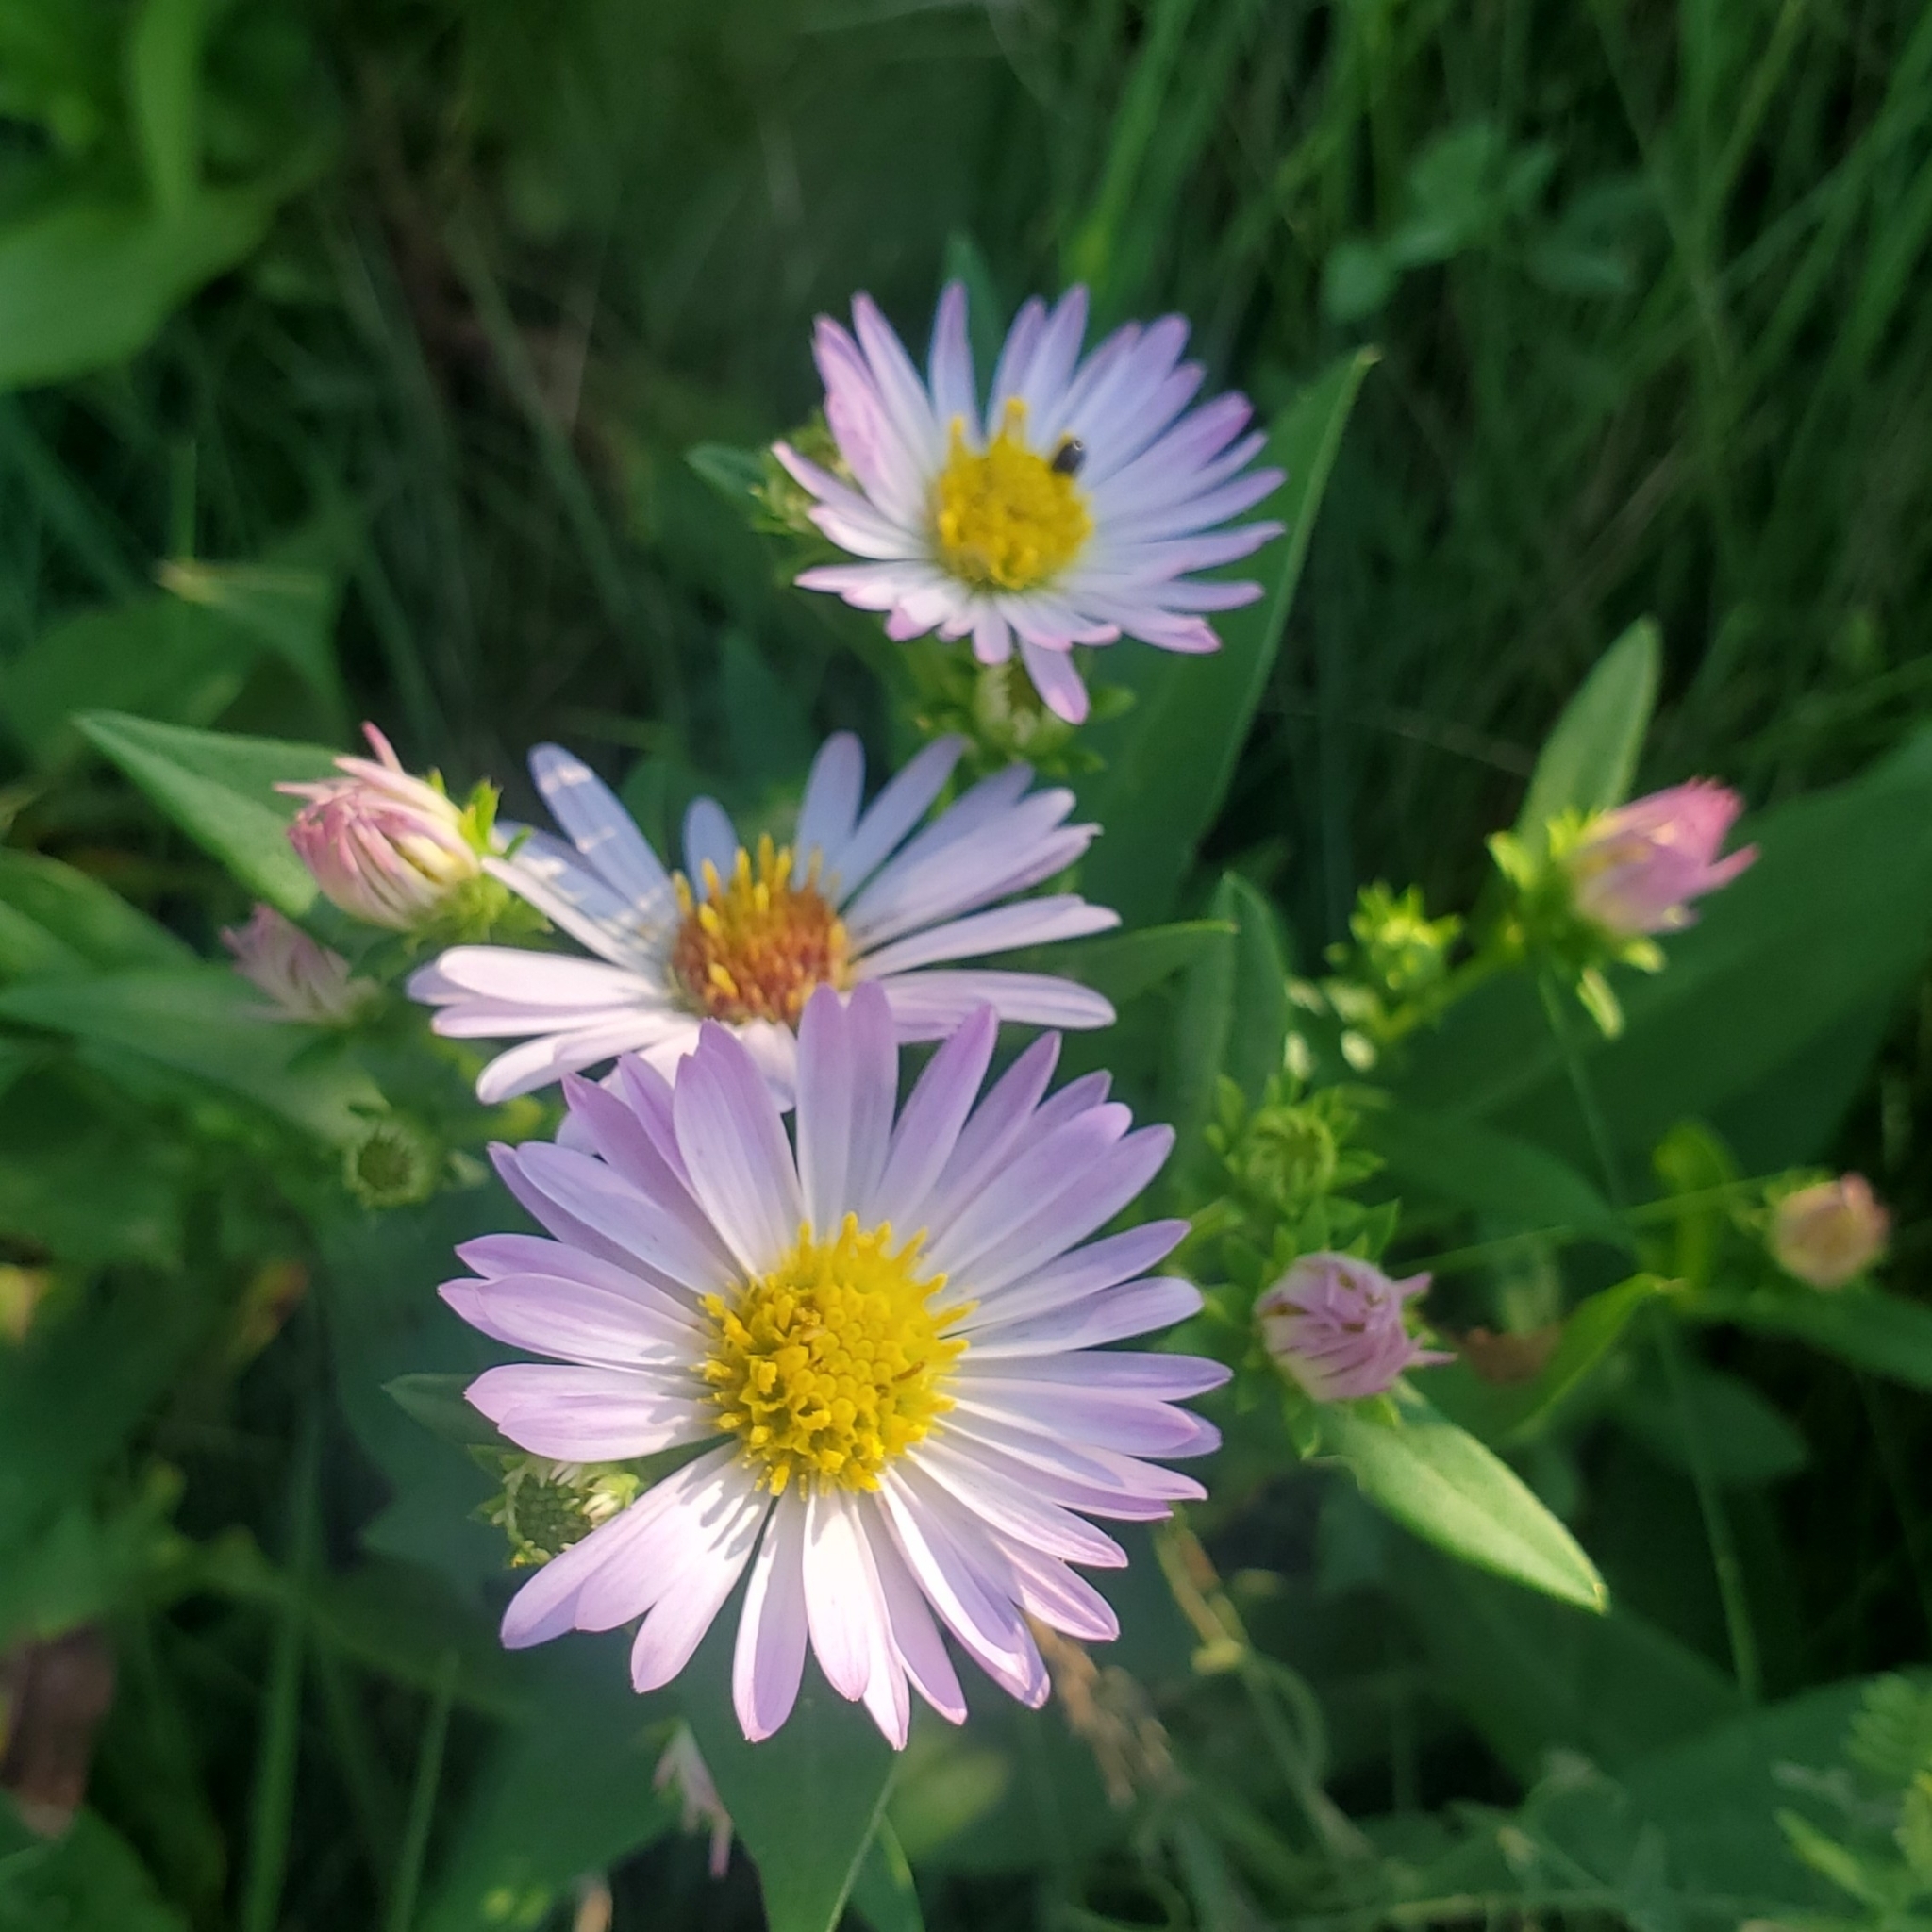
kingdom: Plantae
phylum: Tracheophyta
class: Magnoliopsida
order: Asterales
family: Asteraceae
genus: Symphyotrichum
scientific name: Symphyotrichum novi-belgii
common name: Michaelmas daisy
